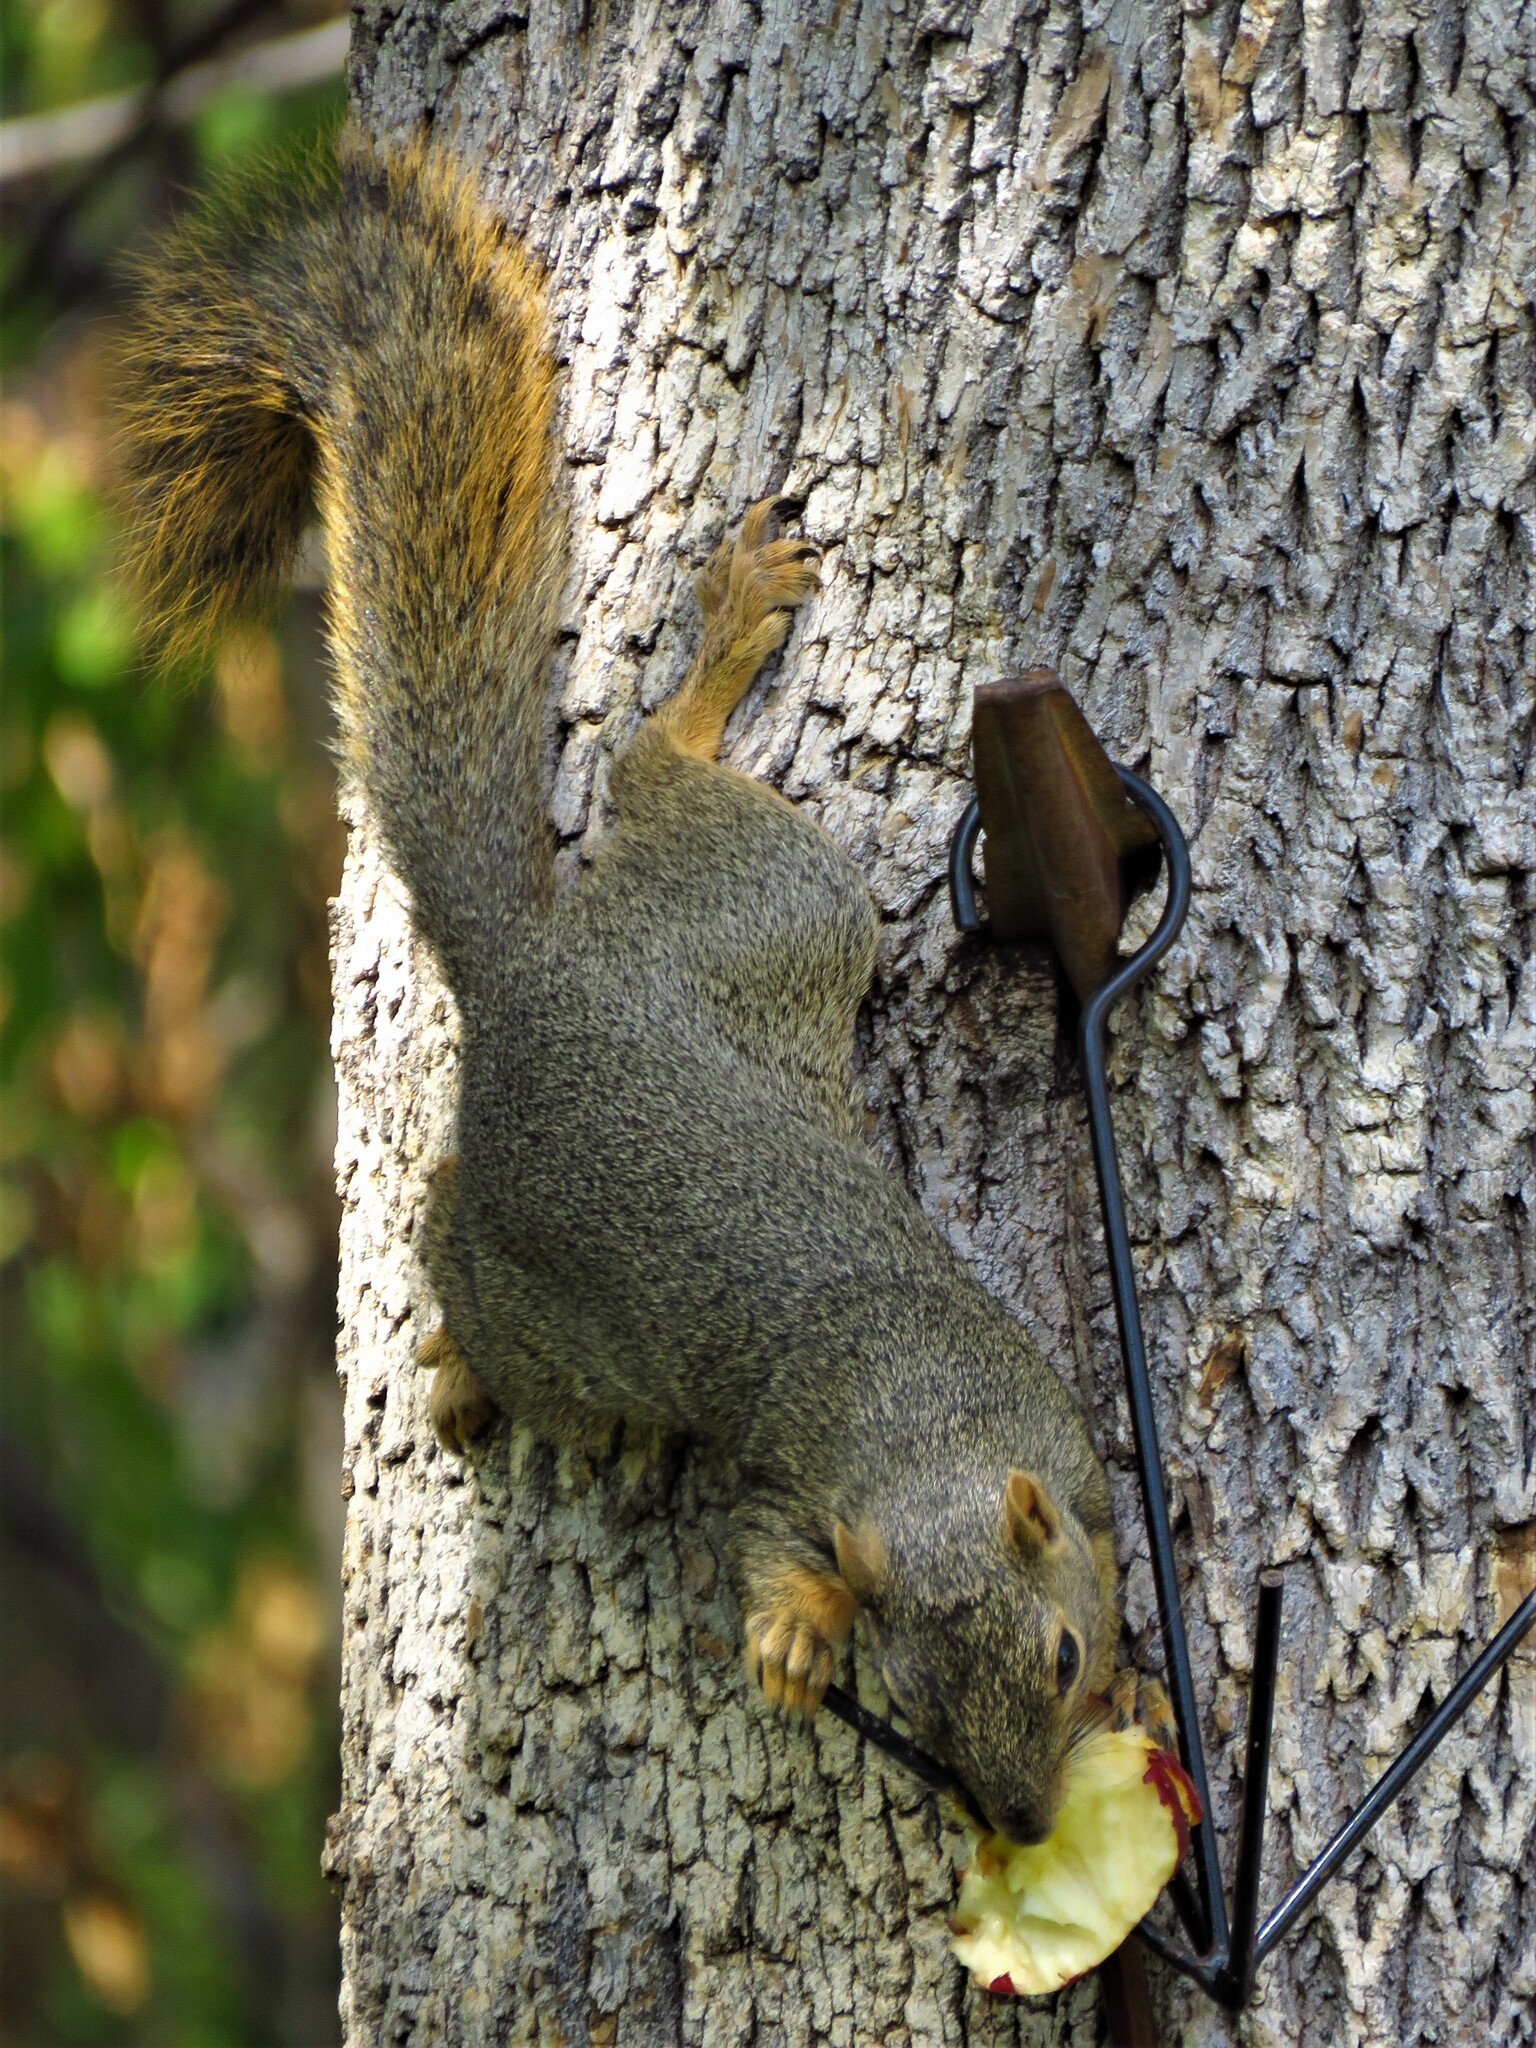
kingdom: Animalia
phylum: Chordata
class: Mammalia
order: Rodentia
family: Sciuridae
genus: Sciurus
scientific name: Sciurus niger
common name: Fox squirrel
